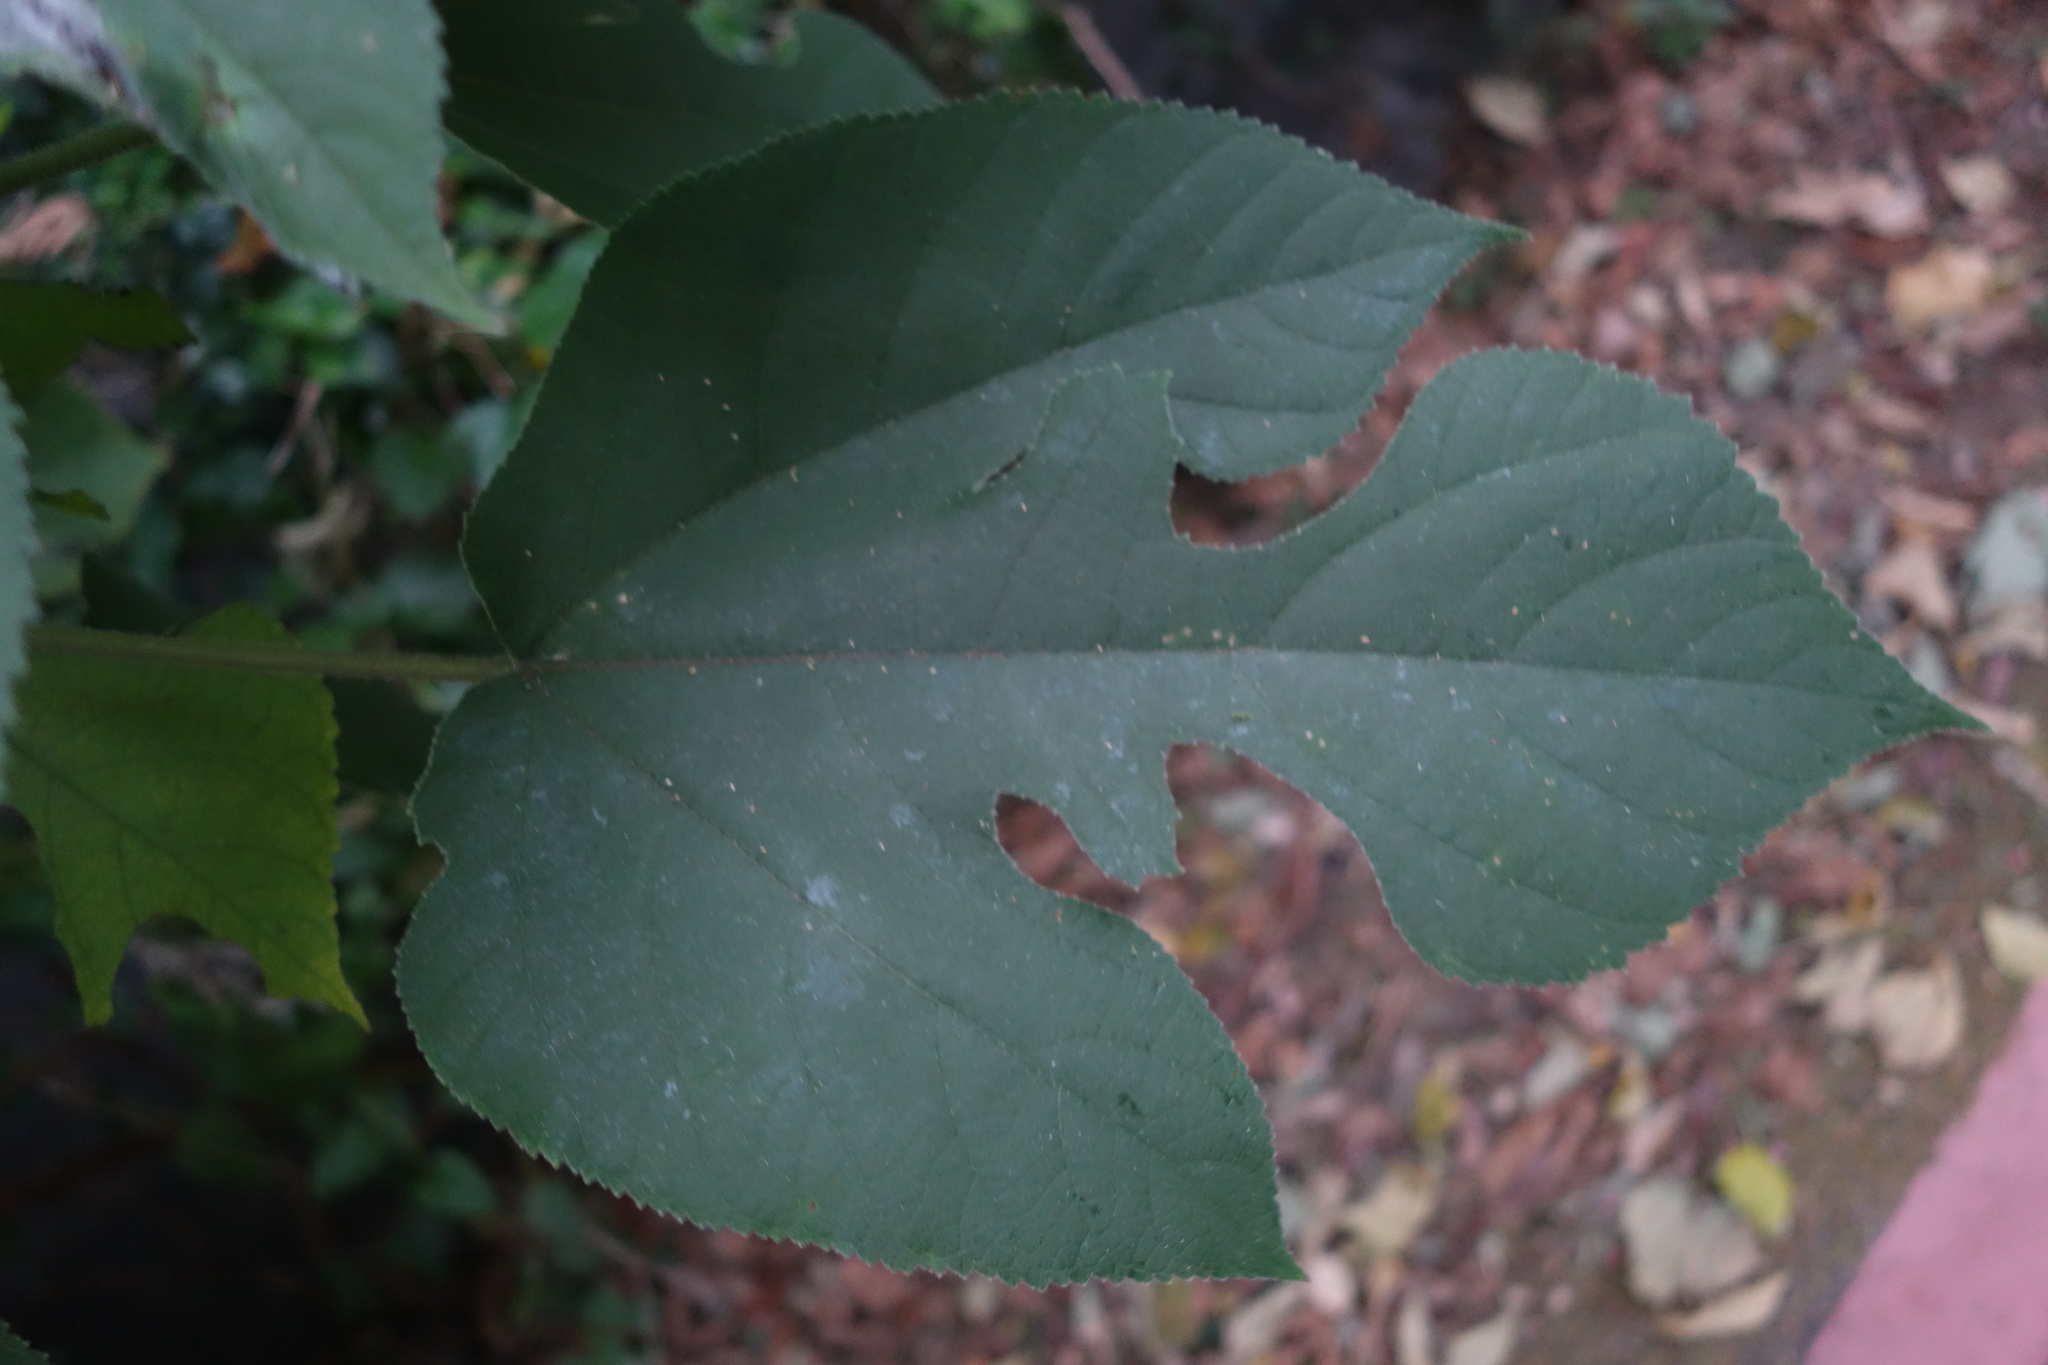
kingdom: Plantae
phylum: Tracheophyta
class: Magnoliopsida
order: Rosales
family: Moraceae
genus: Broussonetia
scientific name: Broussonetia papyrifera
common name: Paper mulberry
